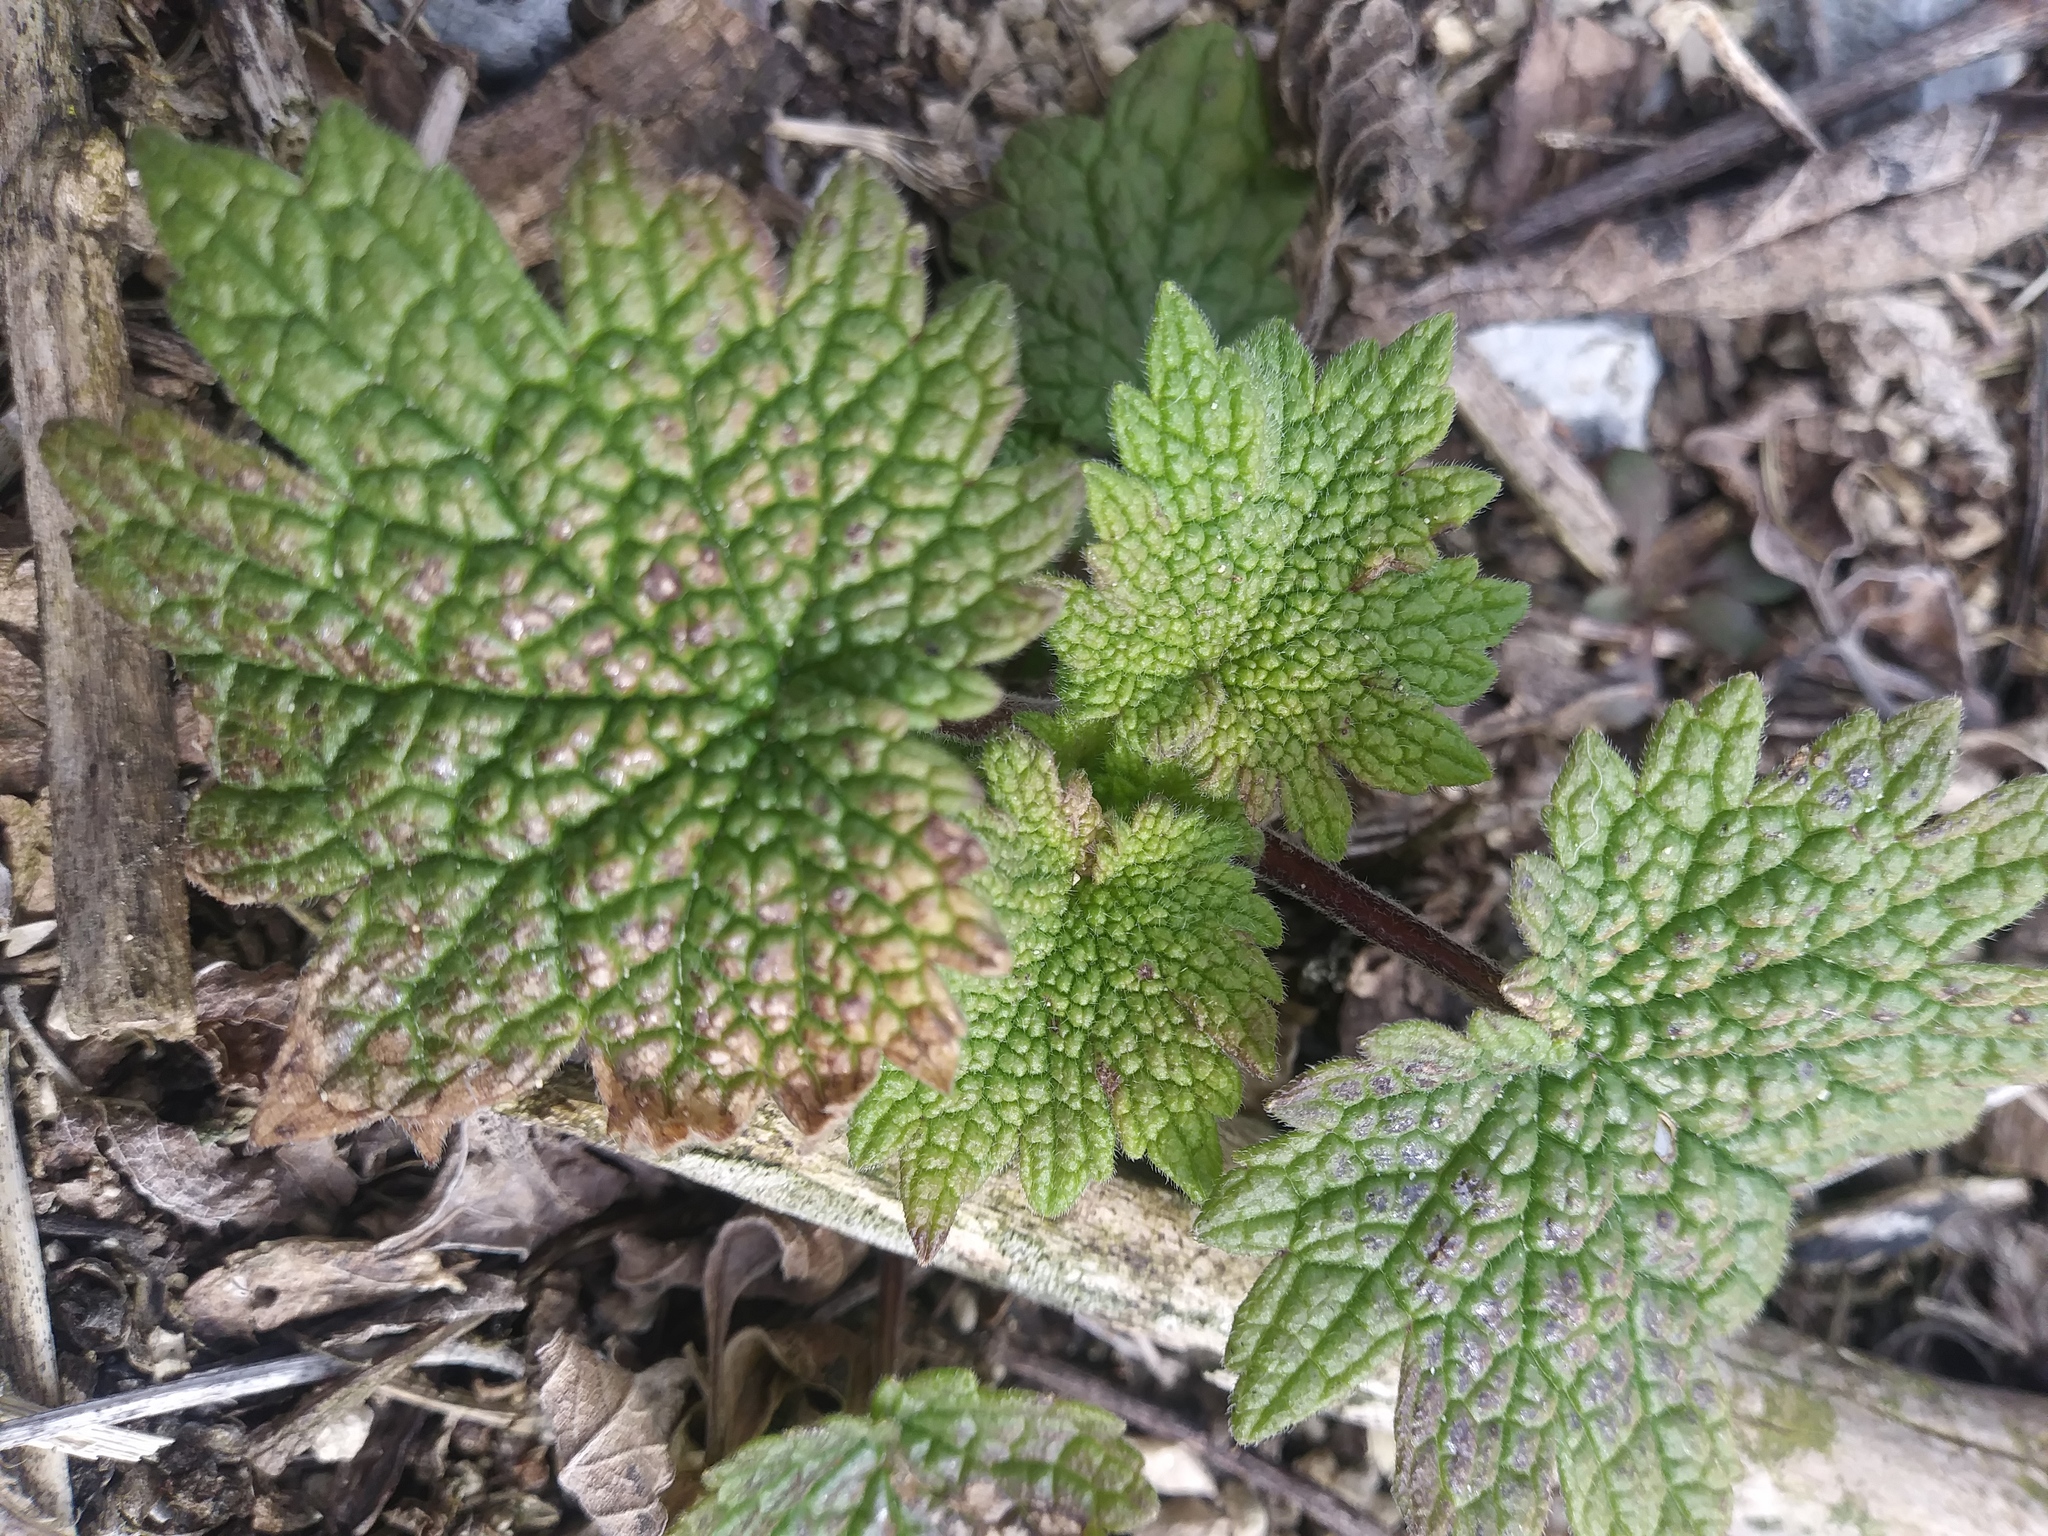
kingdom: Plantae
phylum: Tracheophyta
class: Magnoliopsida
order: Lamiales
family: Lamiaceae
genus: Leonurus
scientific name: Leonurus cardiaca
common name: Motherwort
